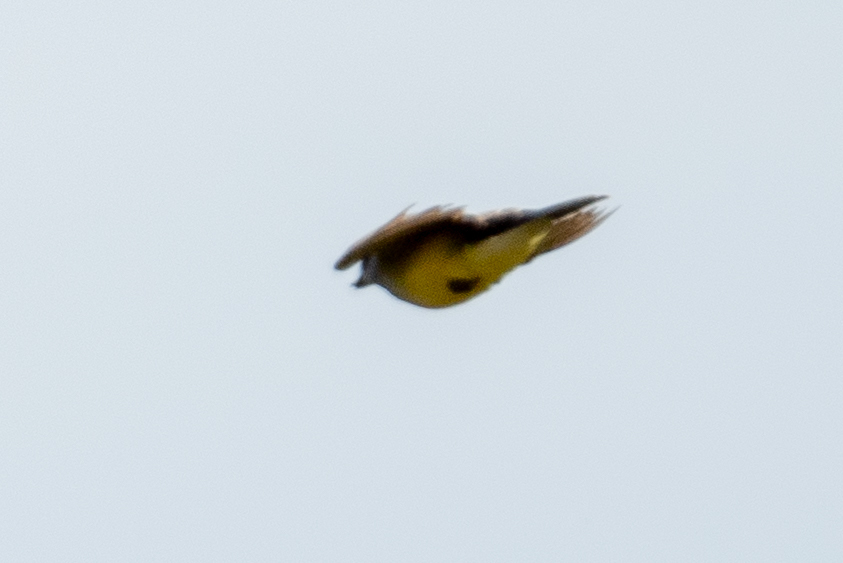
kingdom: Animalia
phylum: Chordata
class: Aves
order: Passeriformes
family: Tyrannidae
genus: Tyrannus
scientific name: Tyrannus verticalis
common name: Western kingbird
